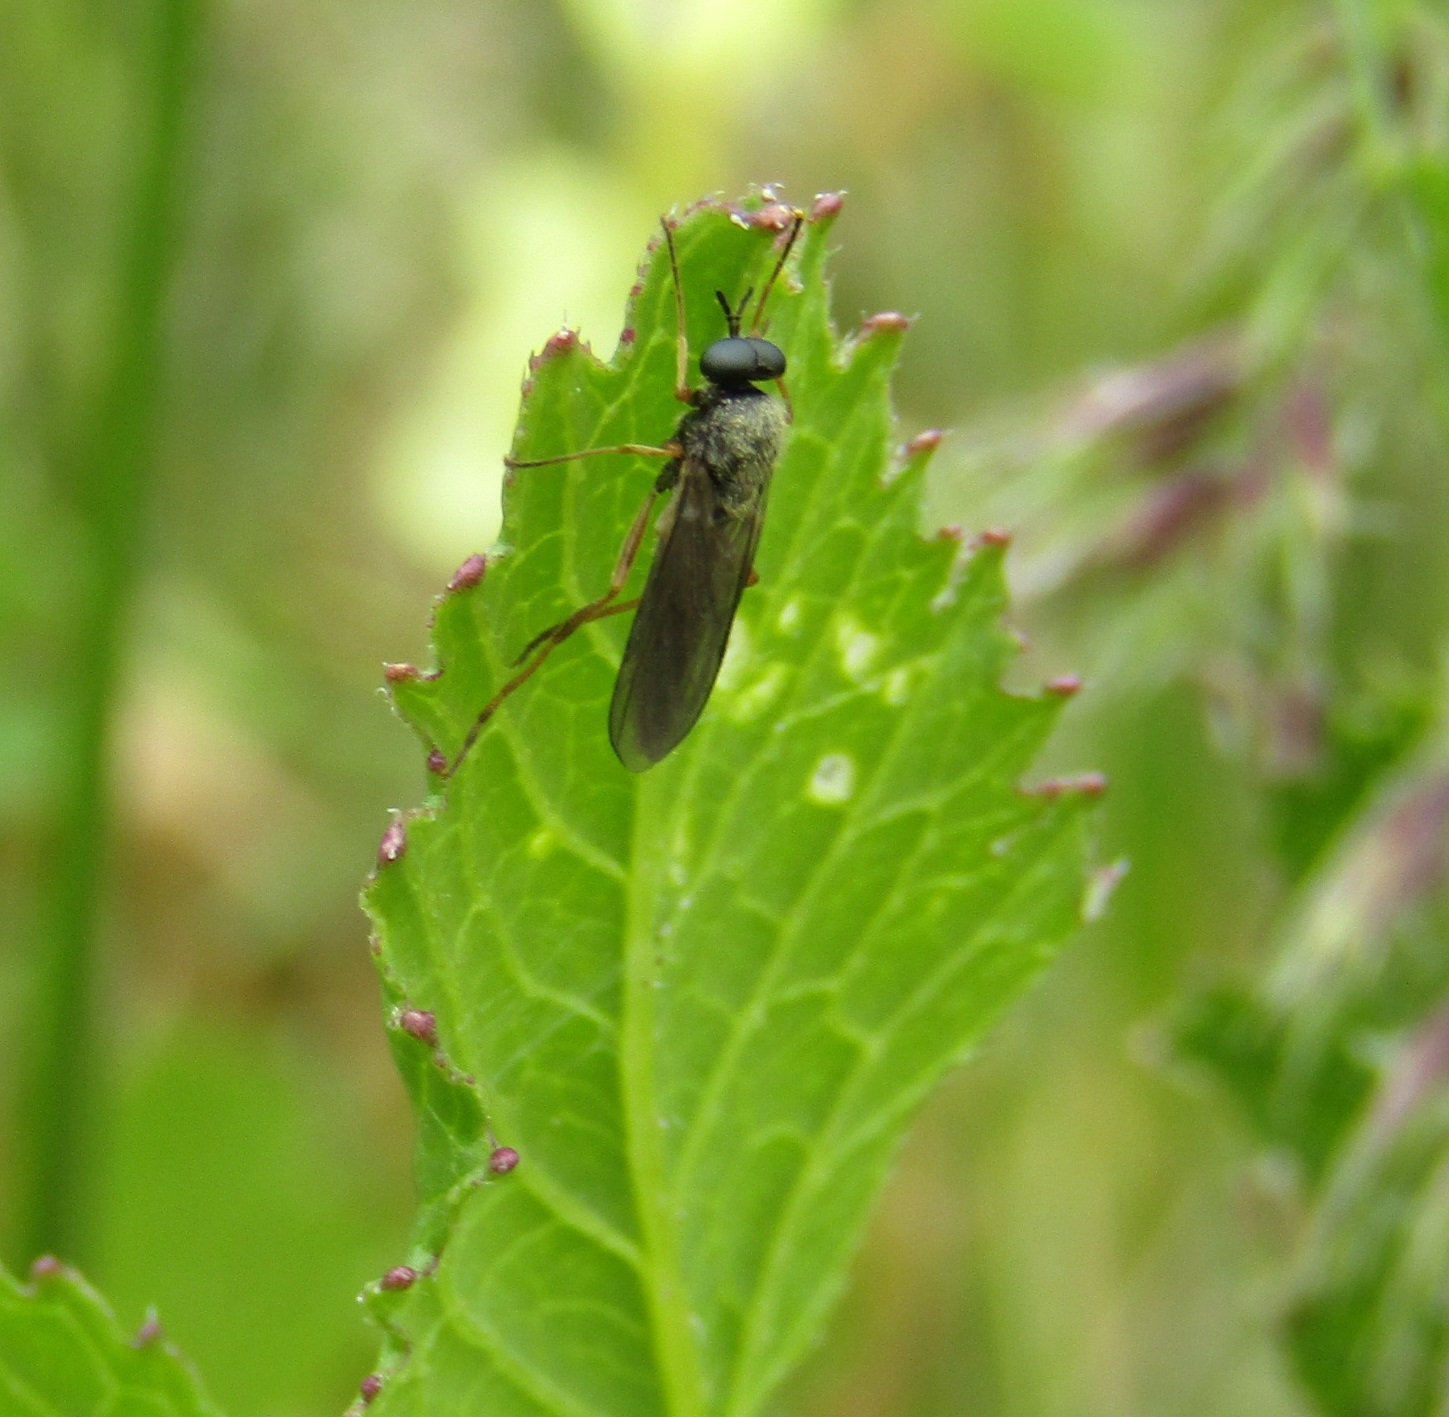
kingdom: Animalia
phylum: Arthropoda
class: Insecta
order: Diptera
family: Stratiomyidae
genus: Inopus
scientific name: Inopus rubriceps
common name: Soldier fly
